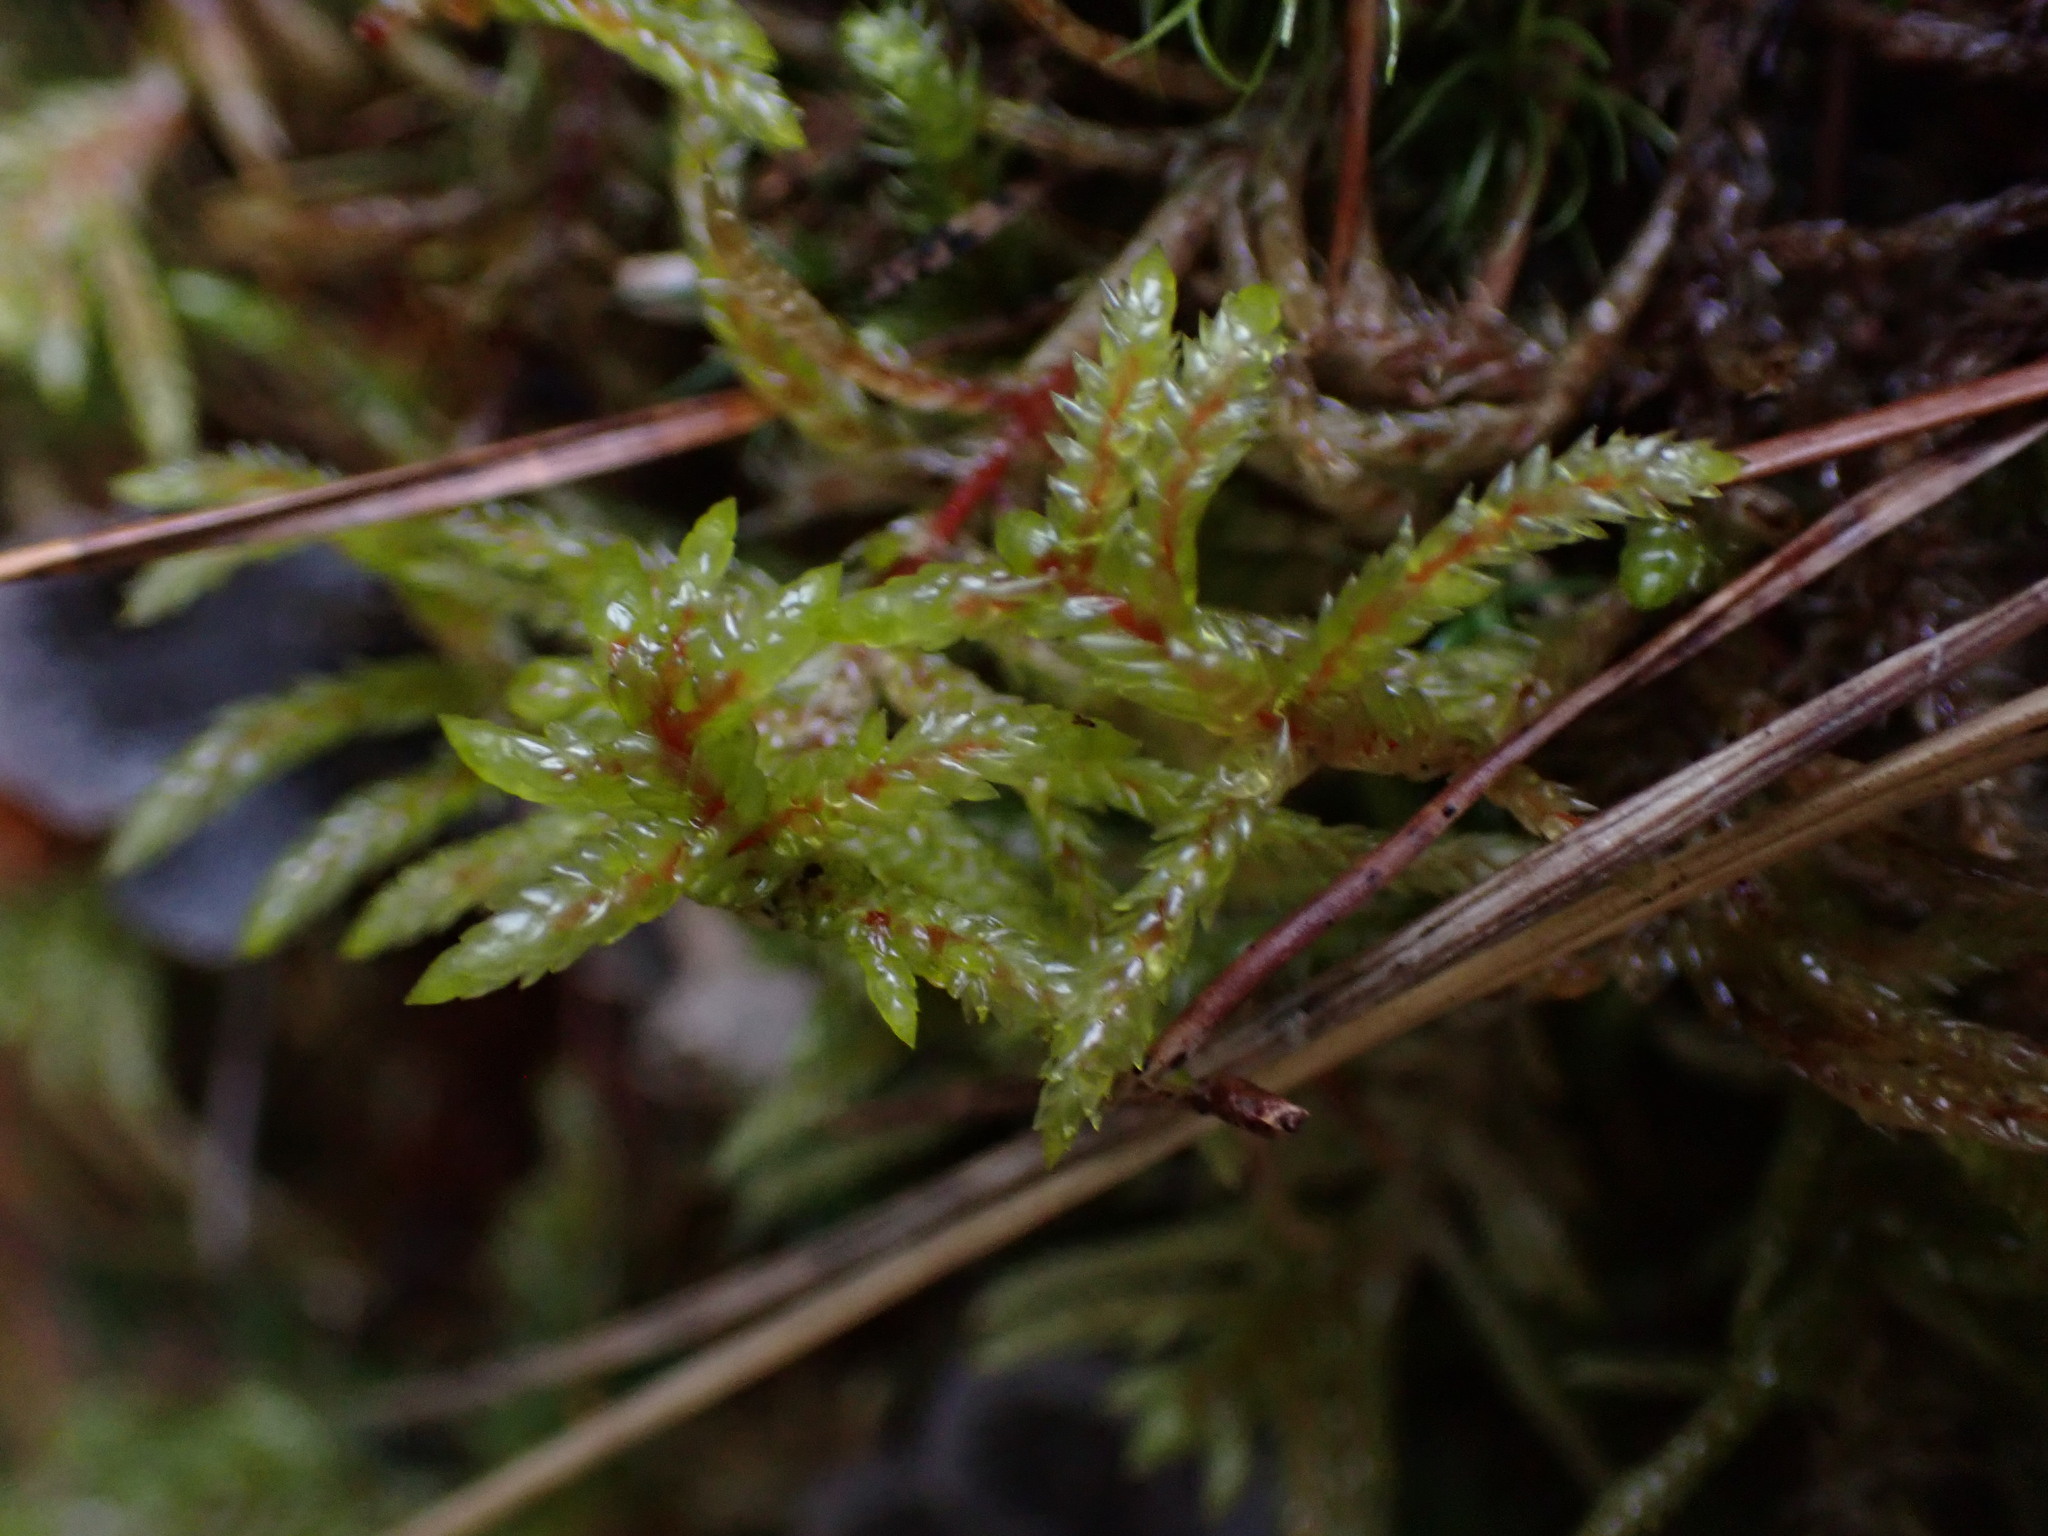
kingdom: Plantae
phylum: Bryophyta
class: Bryopsida
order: Hypnales
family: Hylocomiaceae
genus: Pleurozium
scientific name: Pleurozium schreberi
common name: Red-stemmed feather moss
